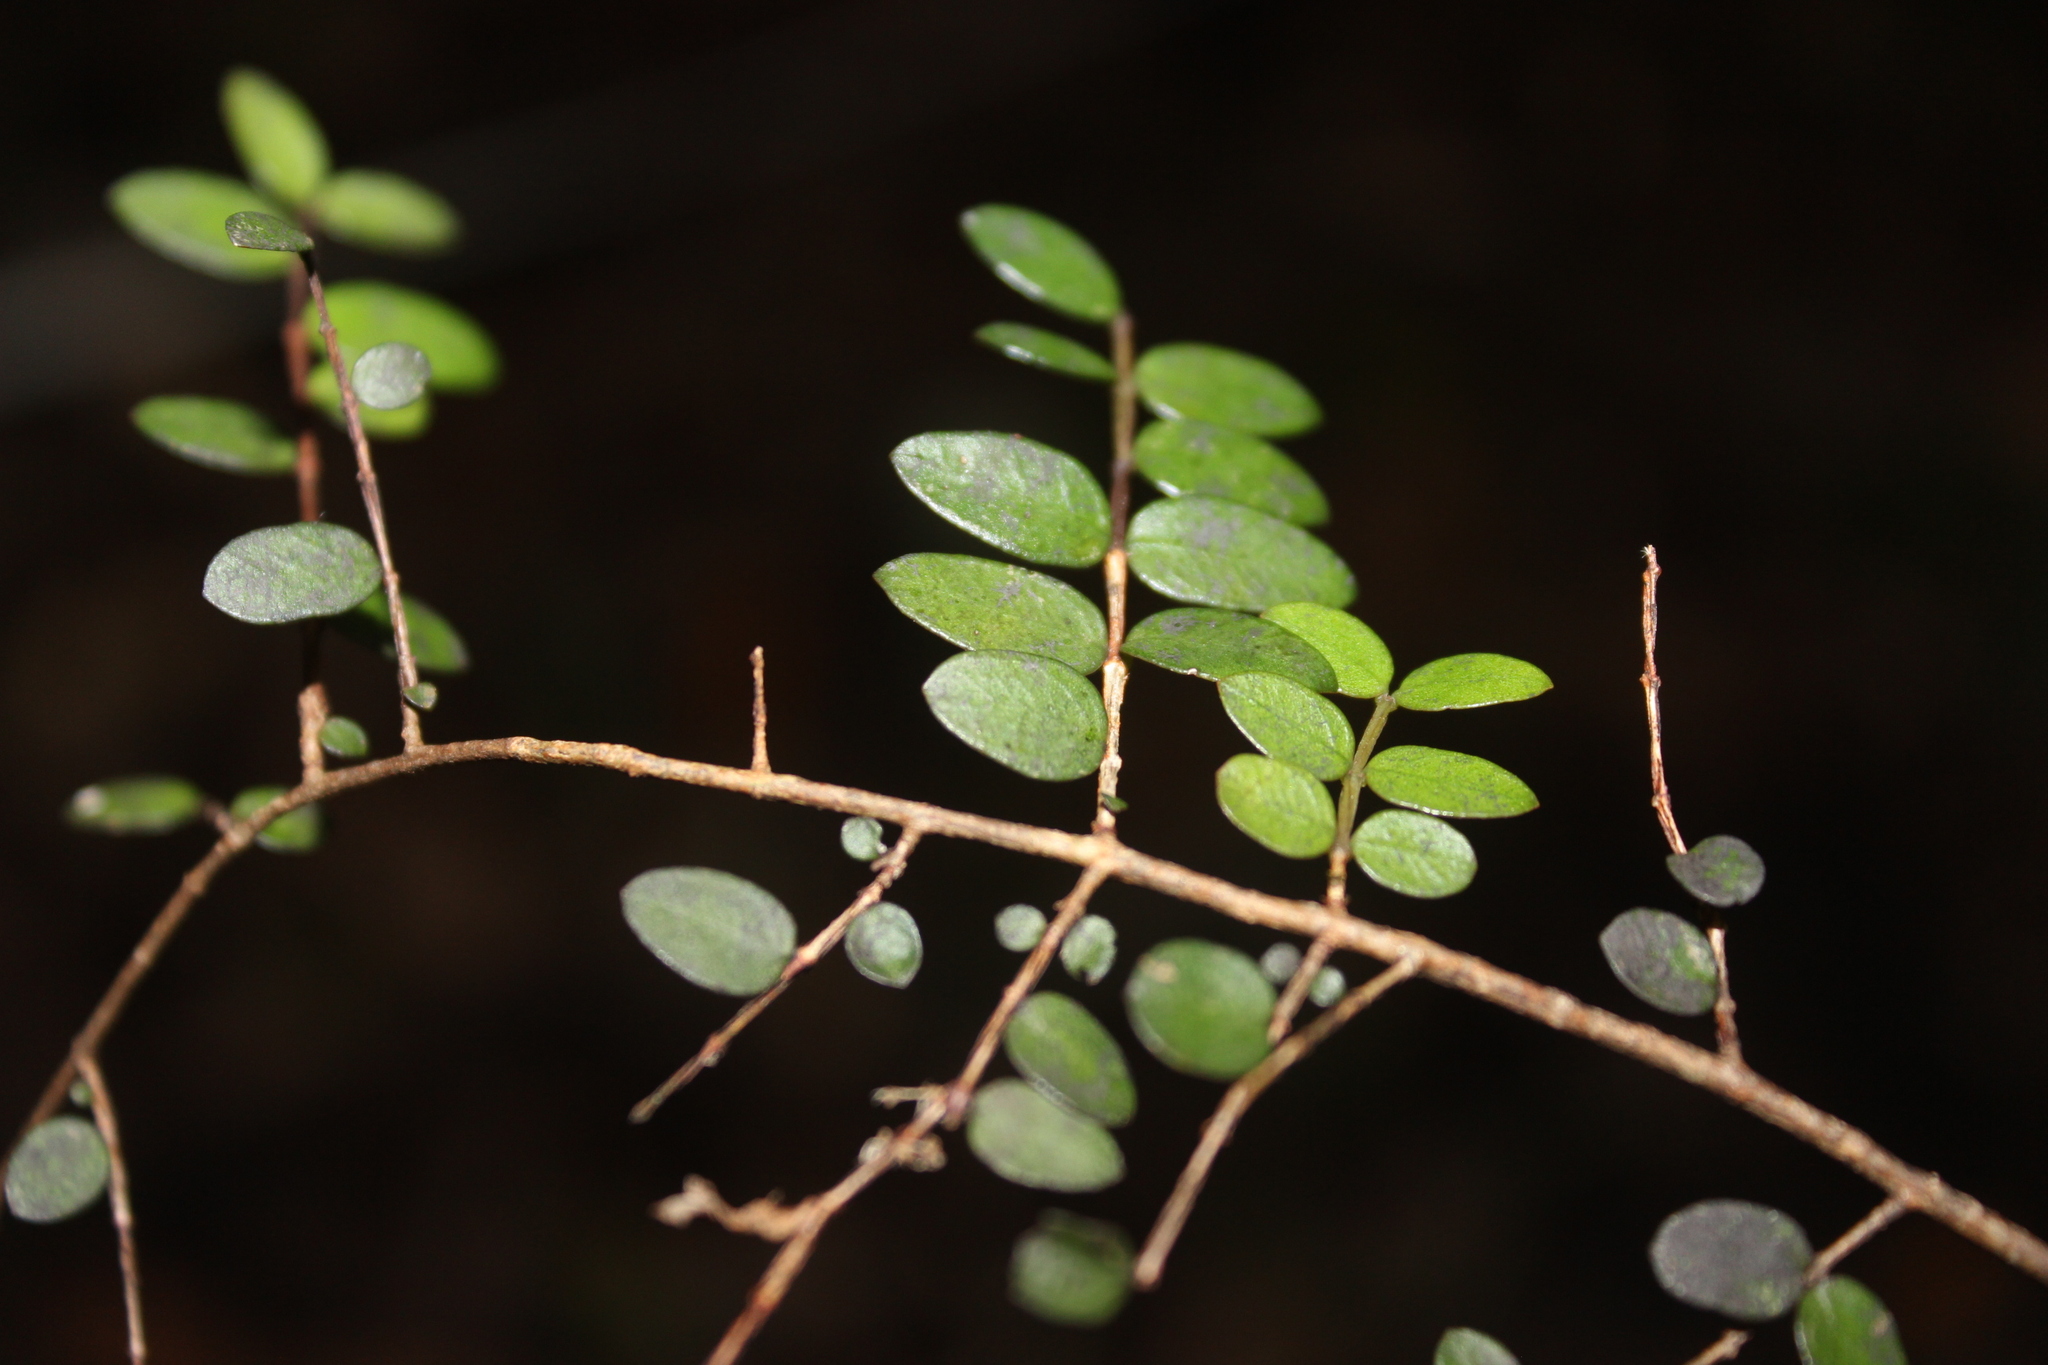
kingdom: Plantae
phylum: Tracheophyta
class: Magnoliopsida
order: Myrtales
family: Myrtaceae
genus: Metrosideros
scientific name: Metrosideros diffusa
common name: Small ratavine
